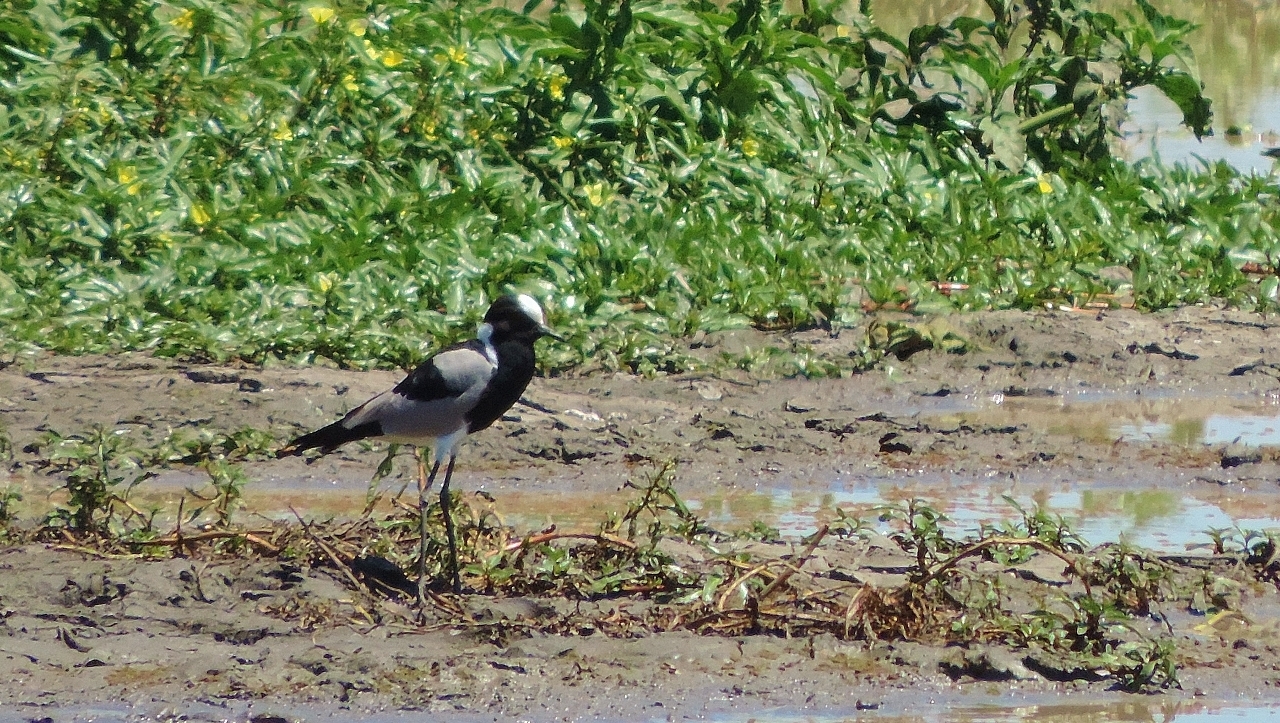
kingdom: Animalia
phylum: Chordata
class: Aves
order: Charadriiformes
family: Charadriidae
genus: Vanellus
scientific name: Vanellus armatus
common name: Blacksmith lapwing
